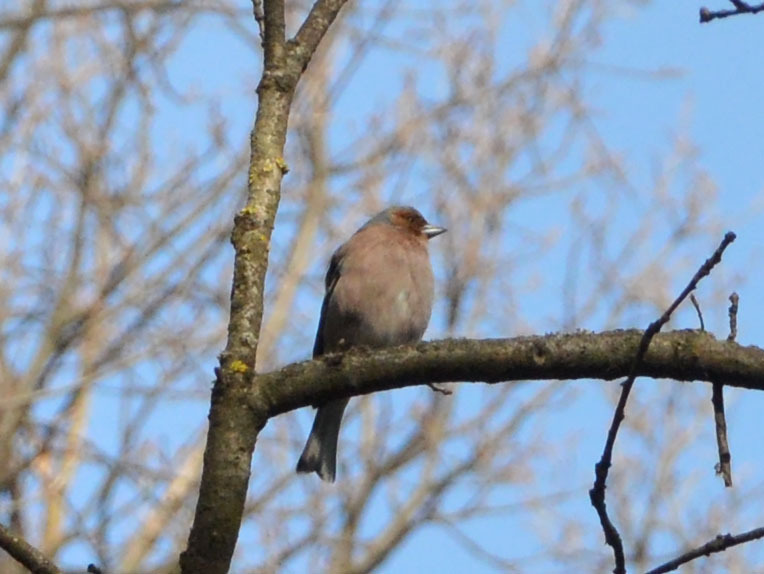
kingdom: Animalia
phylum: Chordata
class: Aves
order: Passeriformes
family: Fringillidae
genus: Fringilla
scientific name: Fringilla coelebs
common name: Common chaffinch
